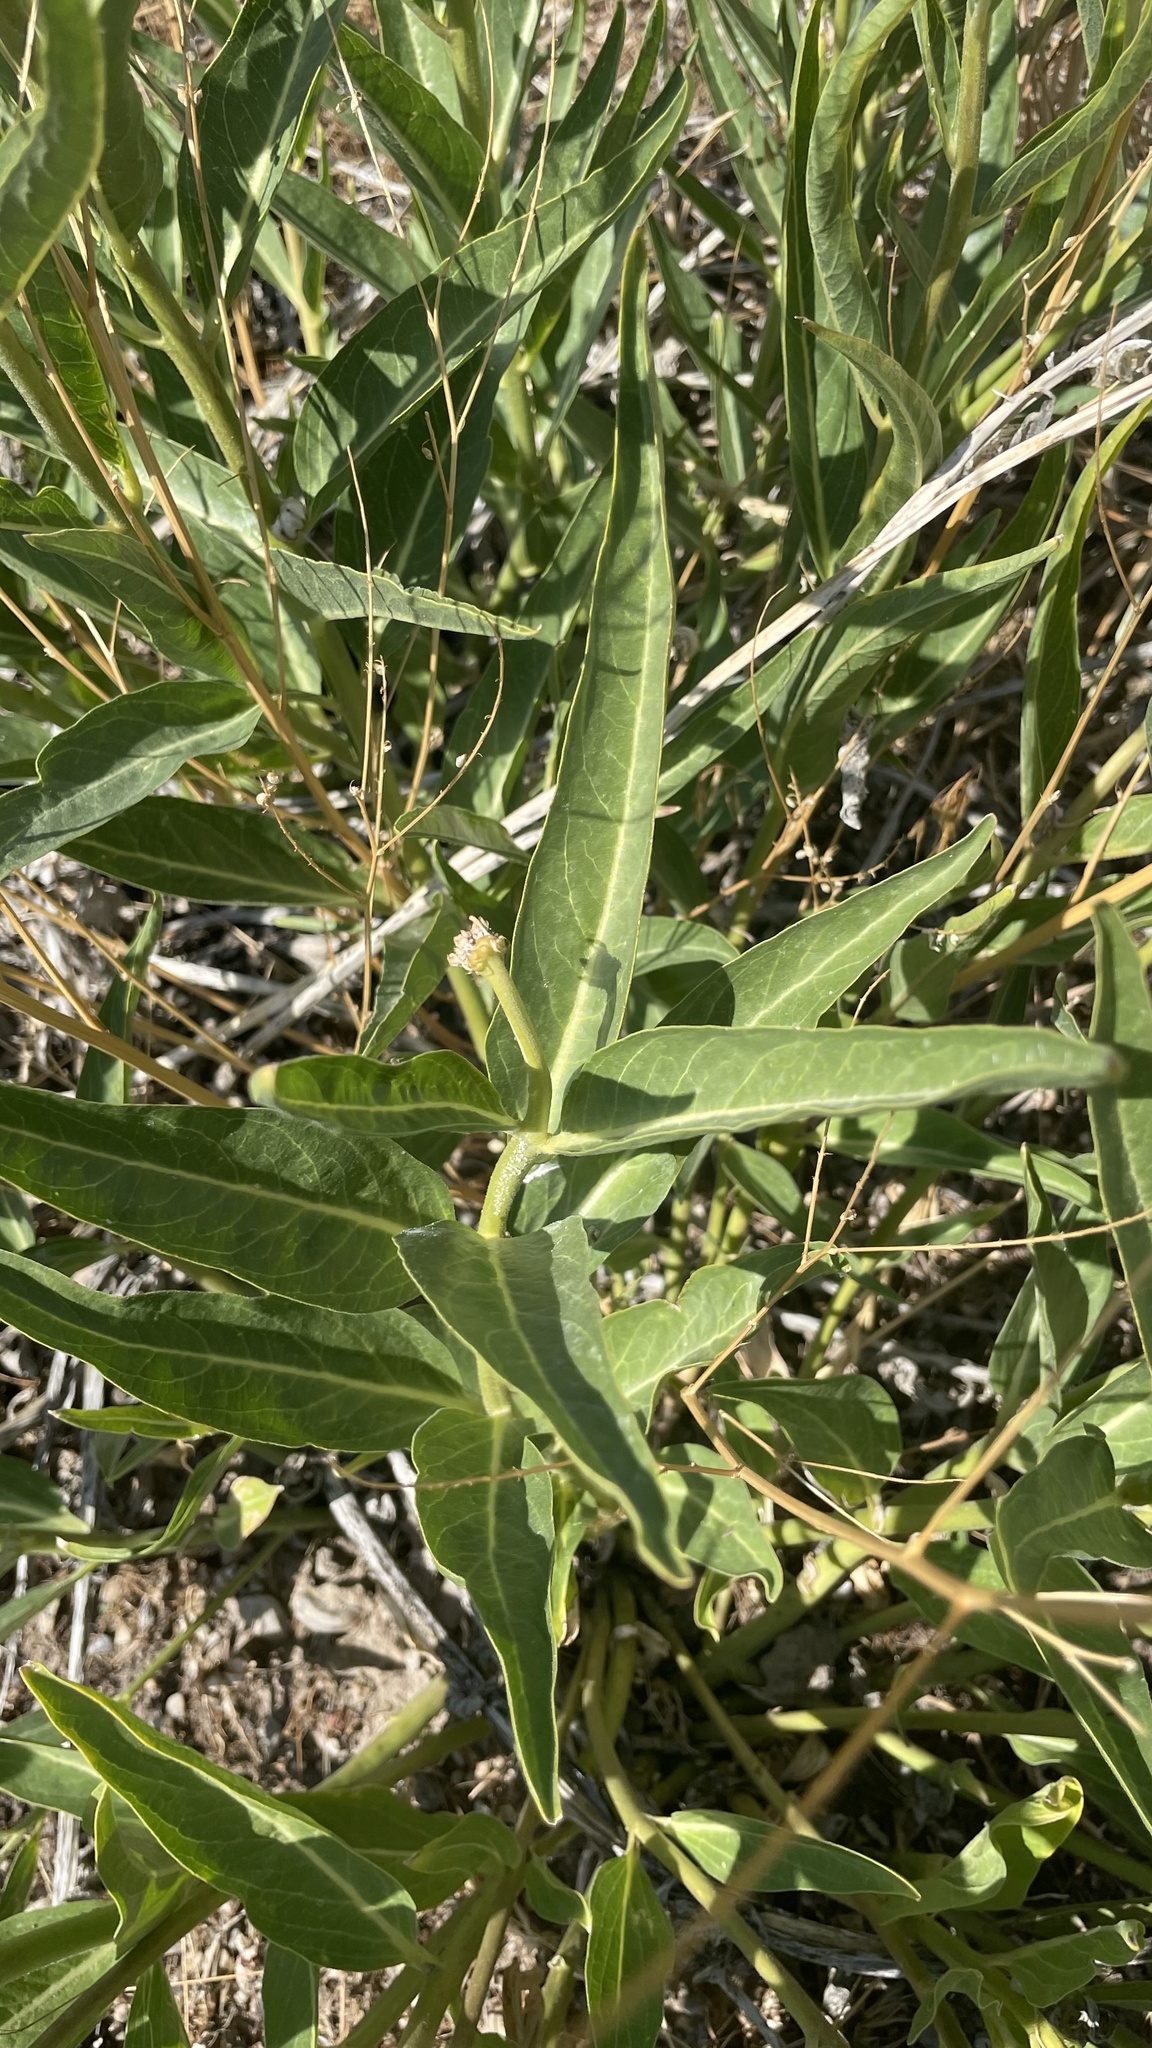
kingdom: Plantae
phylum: Tracheophyta
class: Magnoliopsida
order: Gentianales
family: Apocynaceae
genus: Asclepias
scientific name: Asclepias asperula
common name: Antelope horns
